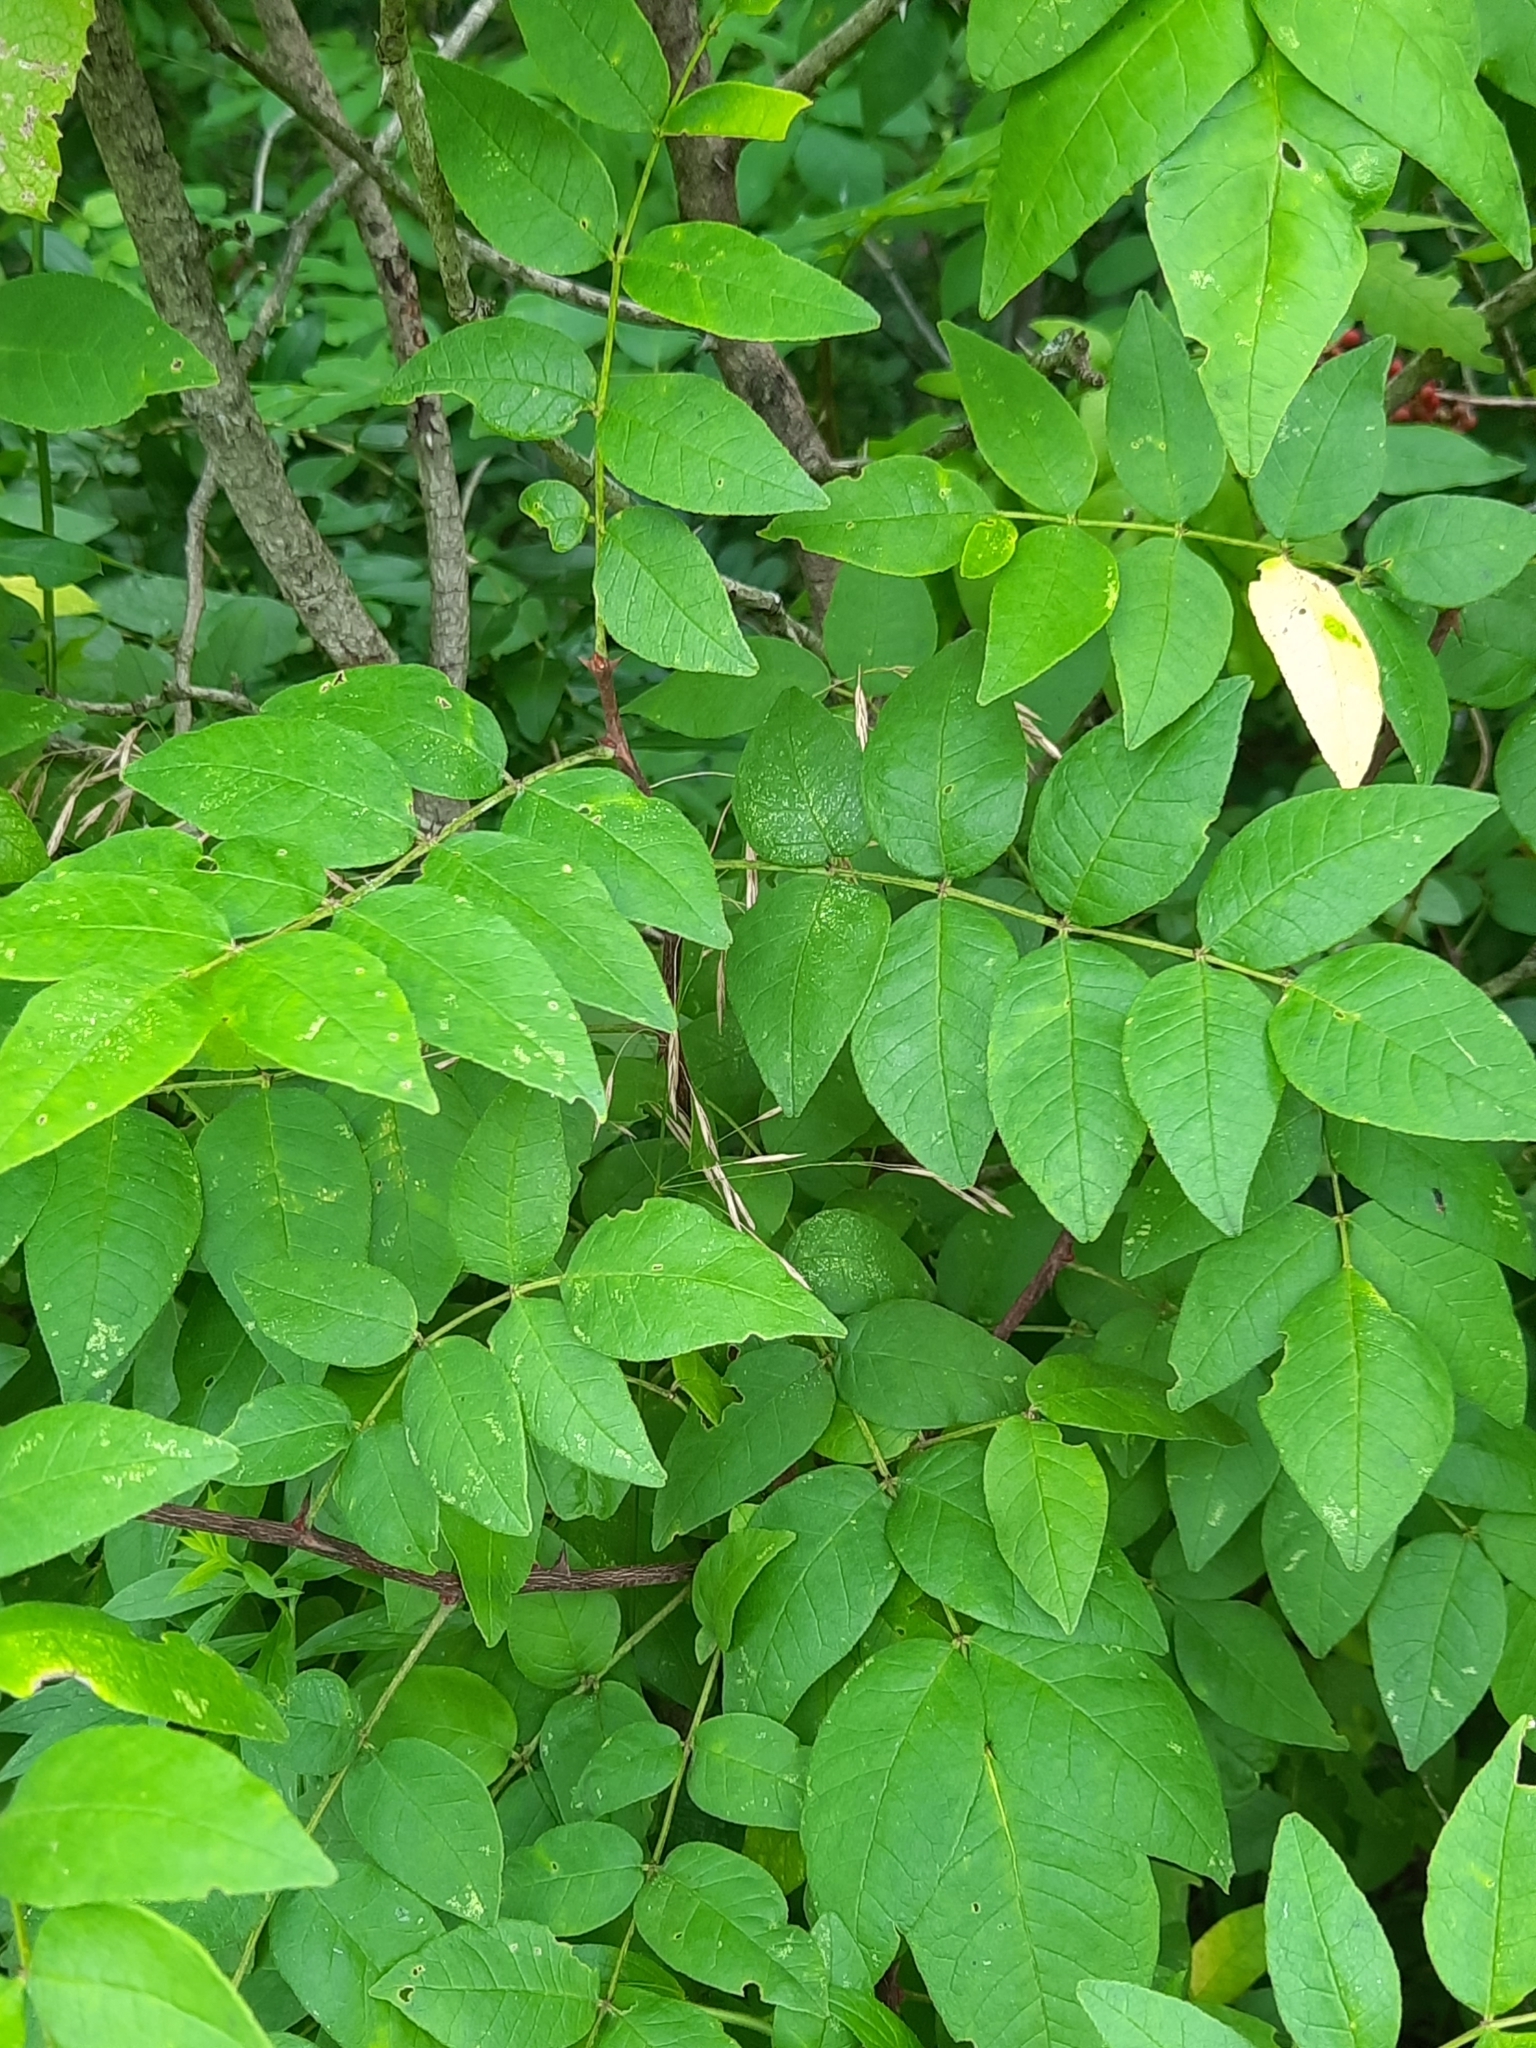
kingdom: Plantae
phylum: Tracheophyta
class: Magnoliopsida
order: Sapindales
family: Rutaceae
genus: Zanthoxylum
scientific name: Zanthoxylum americanum
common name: Northern prickly-ash
